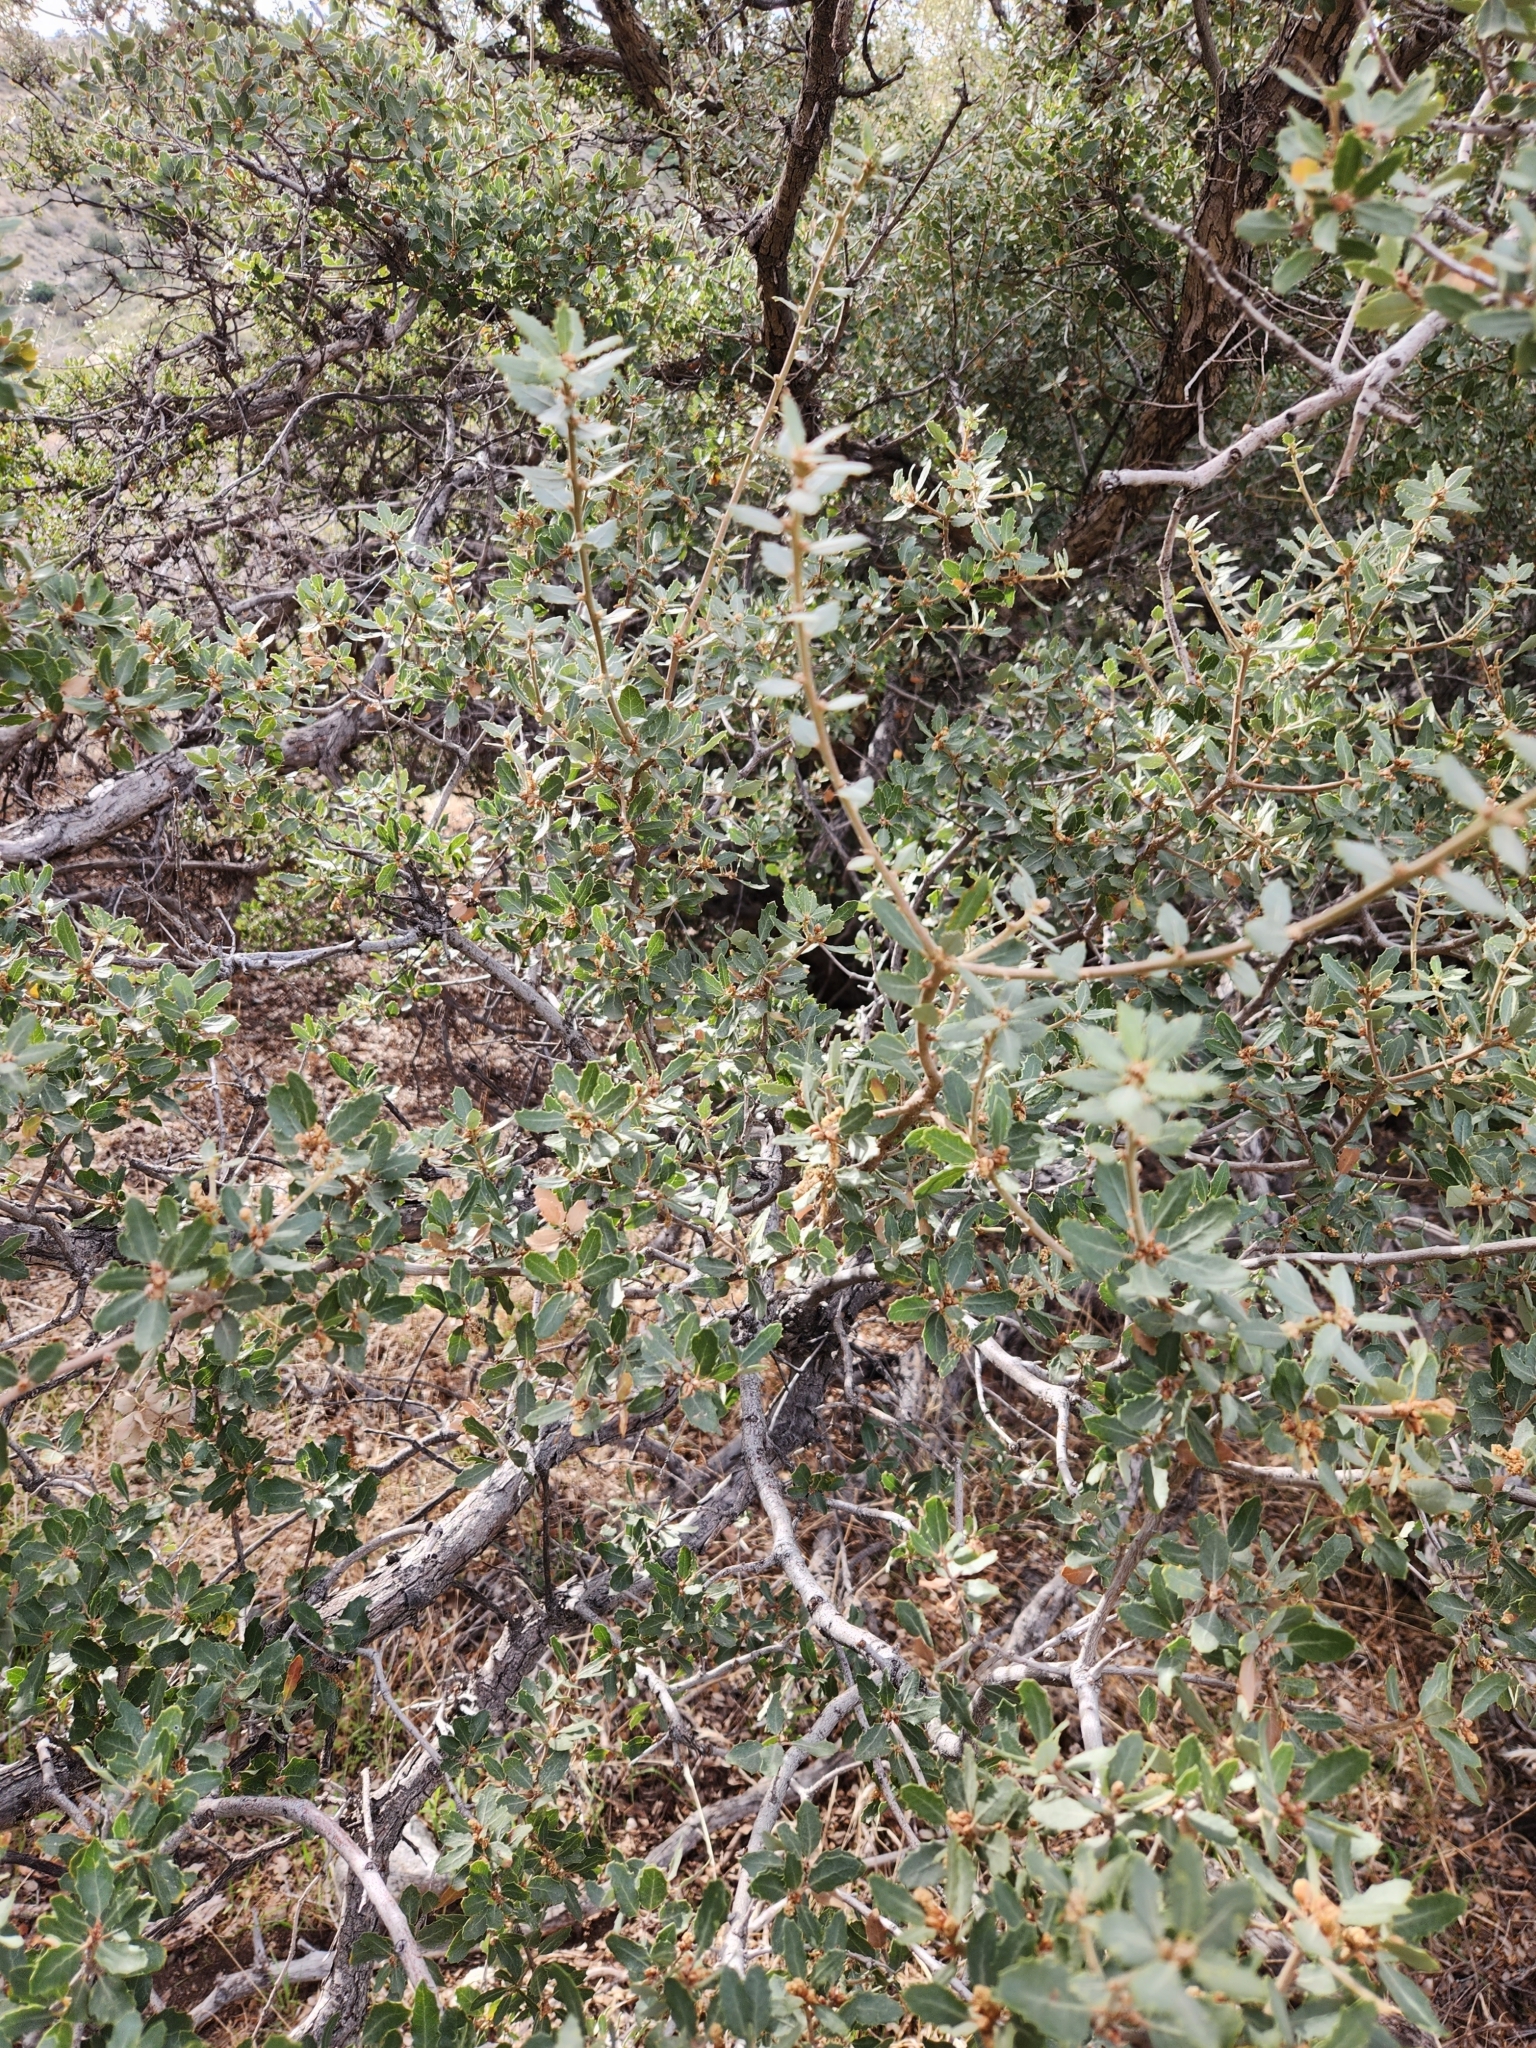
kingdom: Plantae
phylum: Tracheophyta
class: Magnoliopsida
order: Fagales
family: Fagaceae
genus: Quercus
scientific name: Quercus cornelius-mulleri
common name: Muller oak
